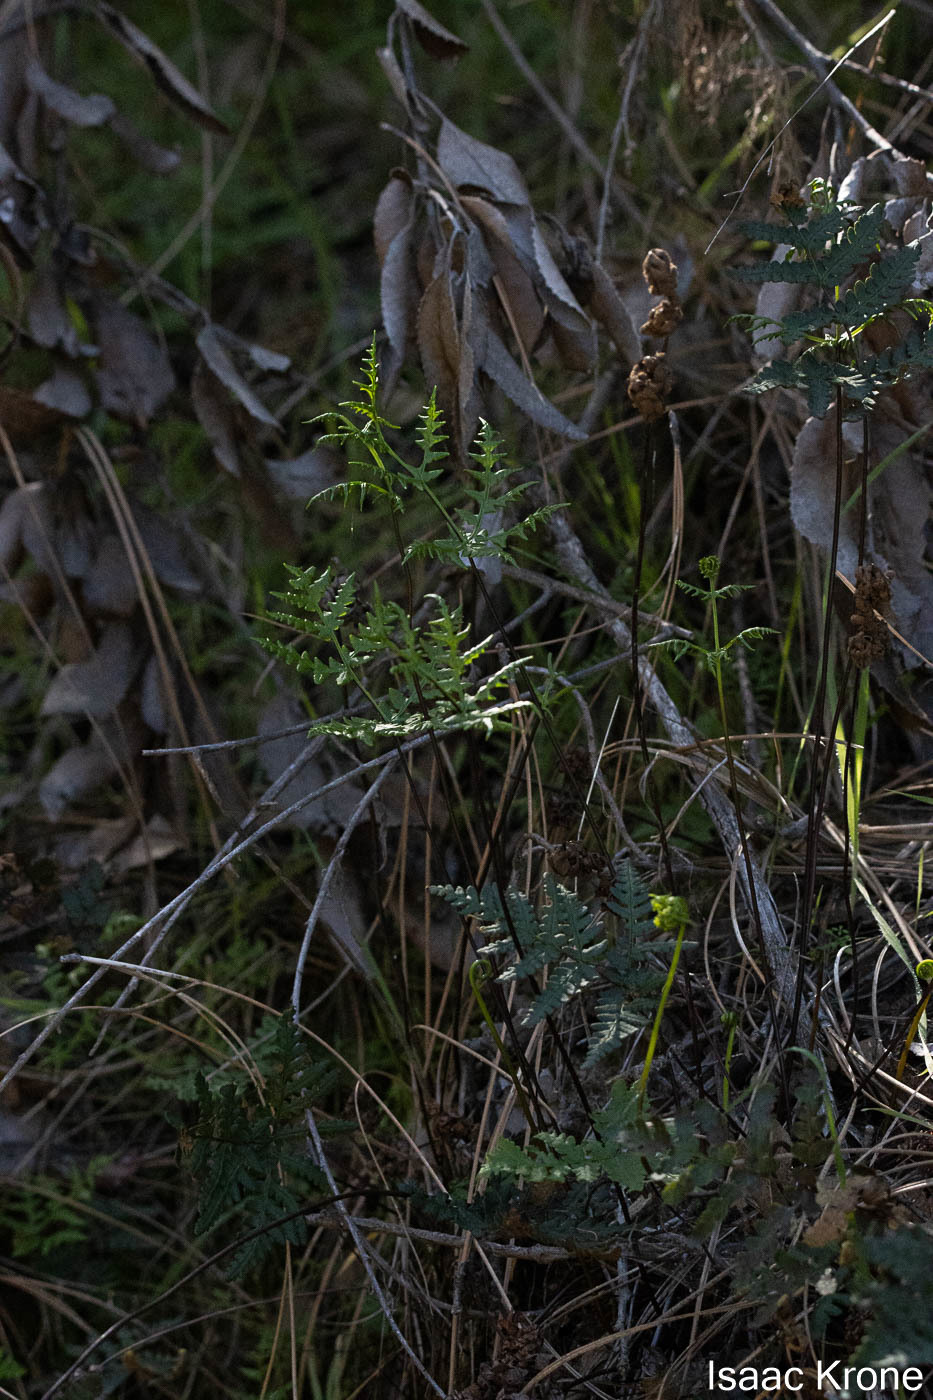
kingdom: Plantae
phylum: Tracheophyta
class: Polypodiopsida
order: Polypodiales
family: Pteridaceae
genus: Pentagramma
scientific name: Pentagramma triangularis
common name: Gold fern
